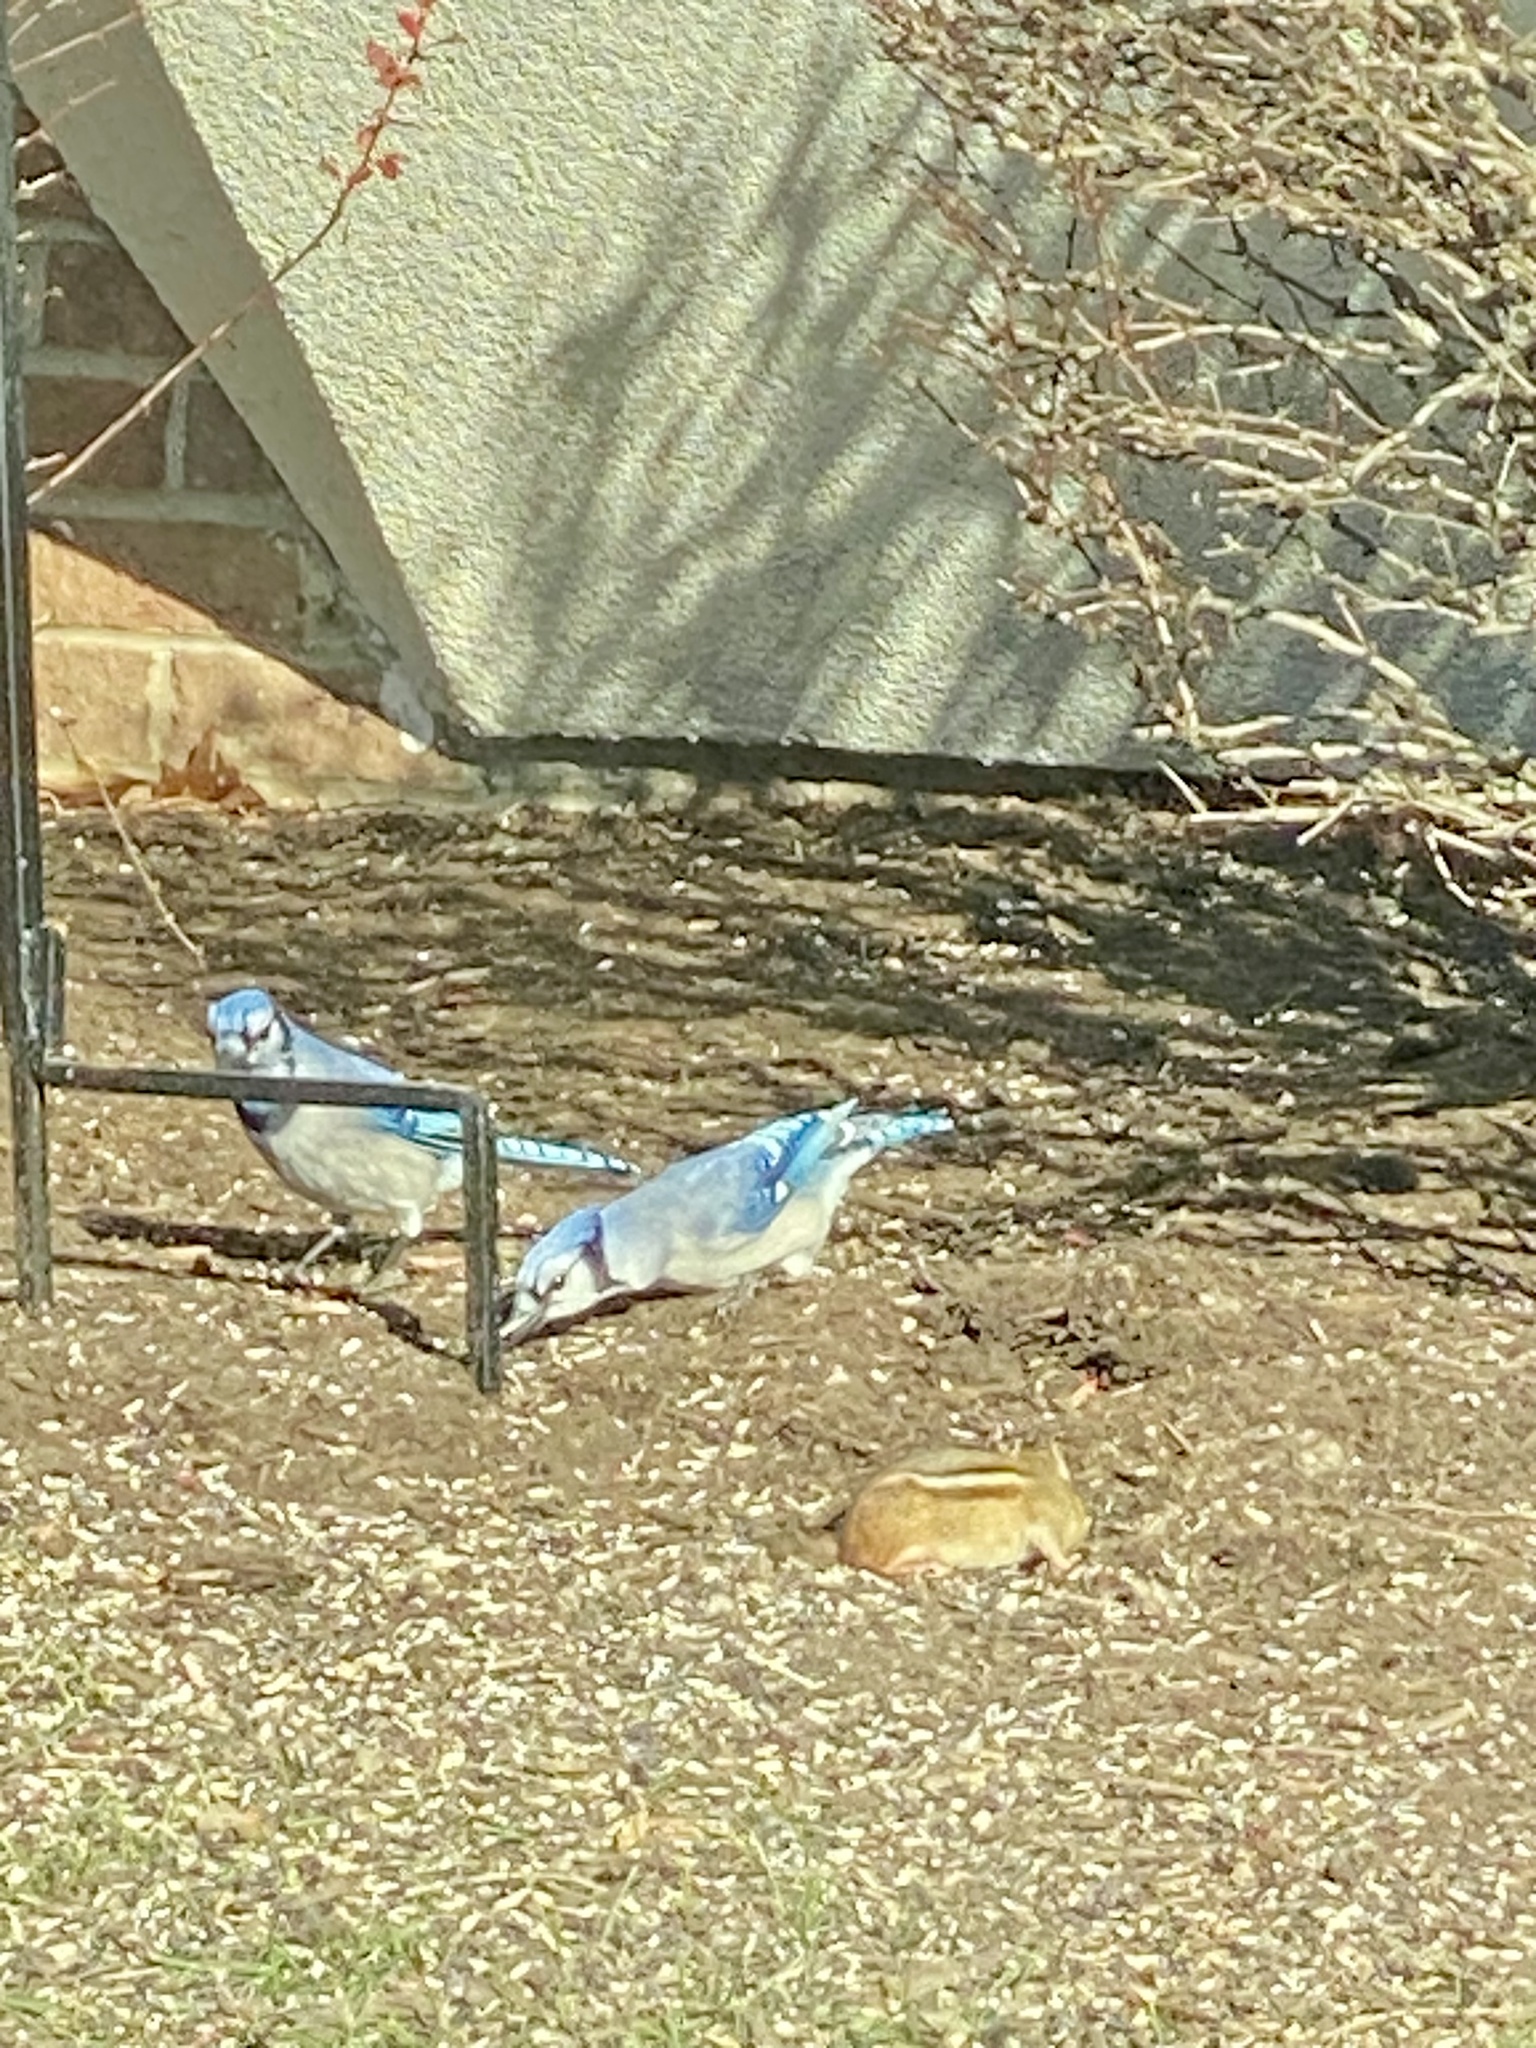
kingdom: Animalia
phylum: Chordata
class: Aves
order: Passeriformes
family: Corvidae
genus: Cyanocitta
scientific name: Cyanocitta cristata
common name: Blue jay
